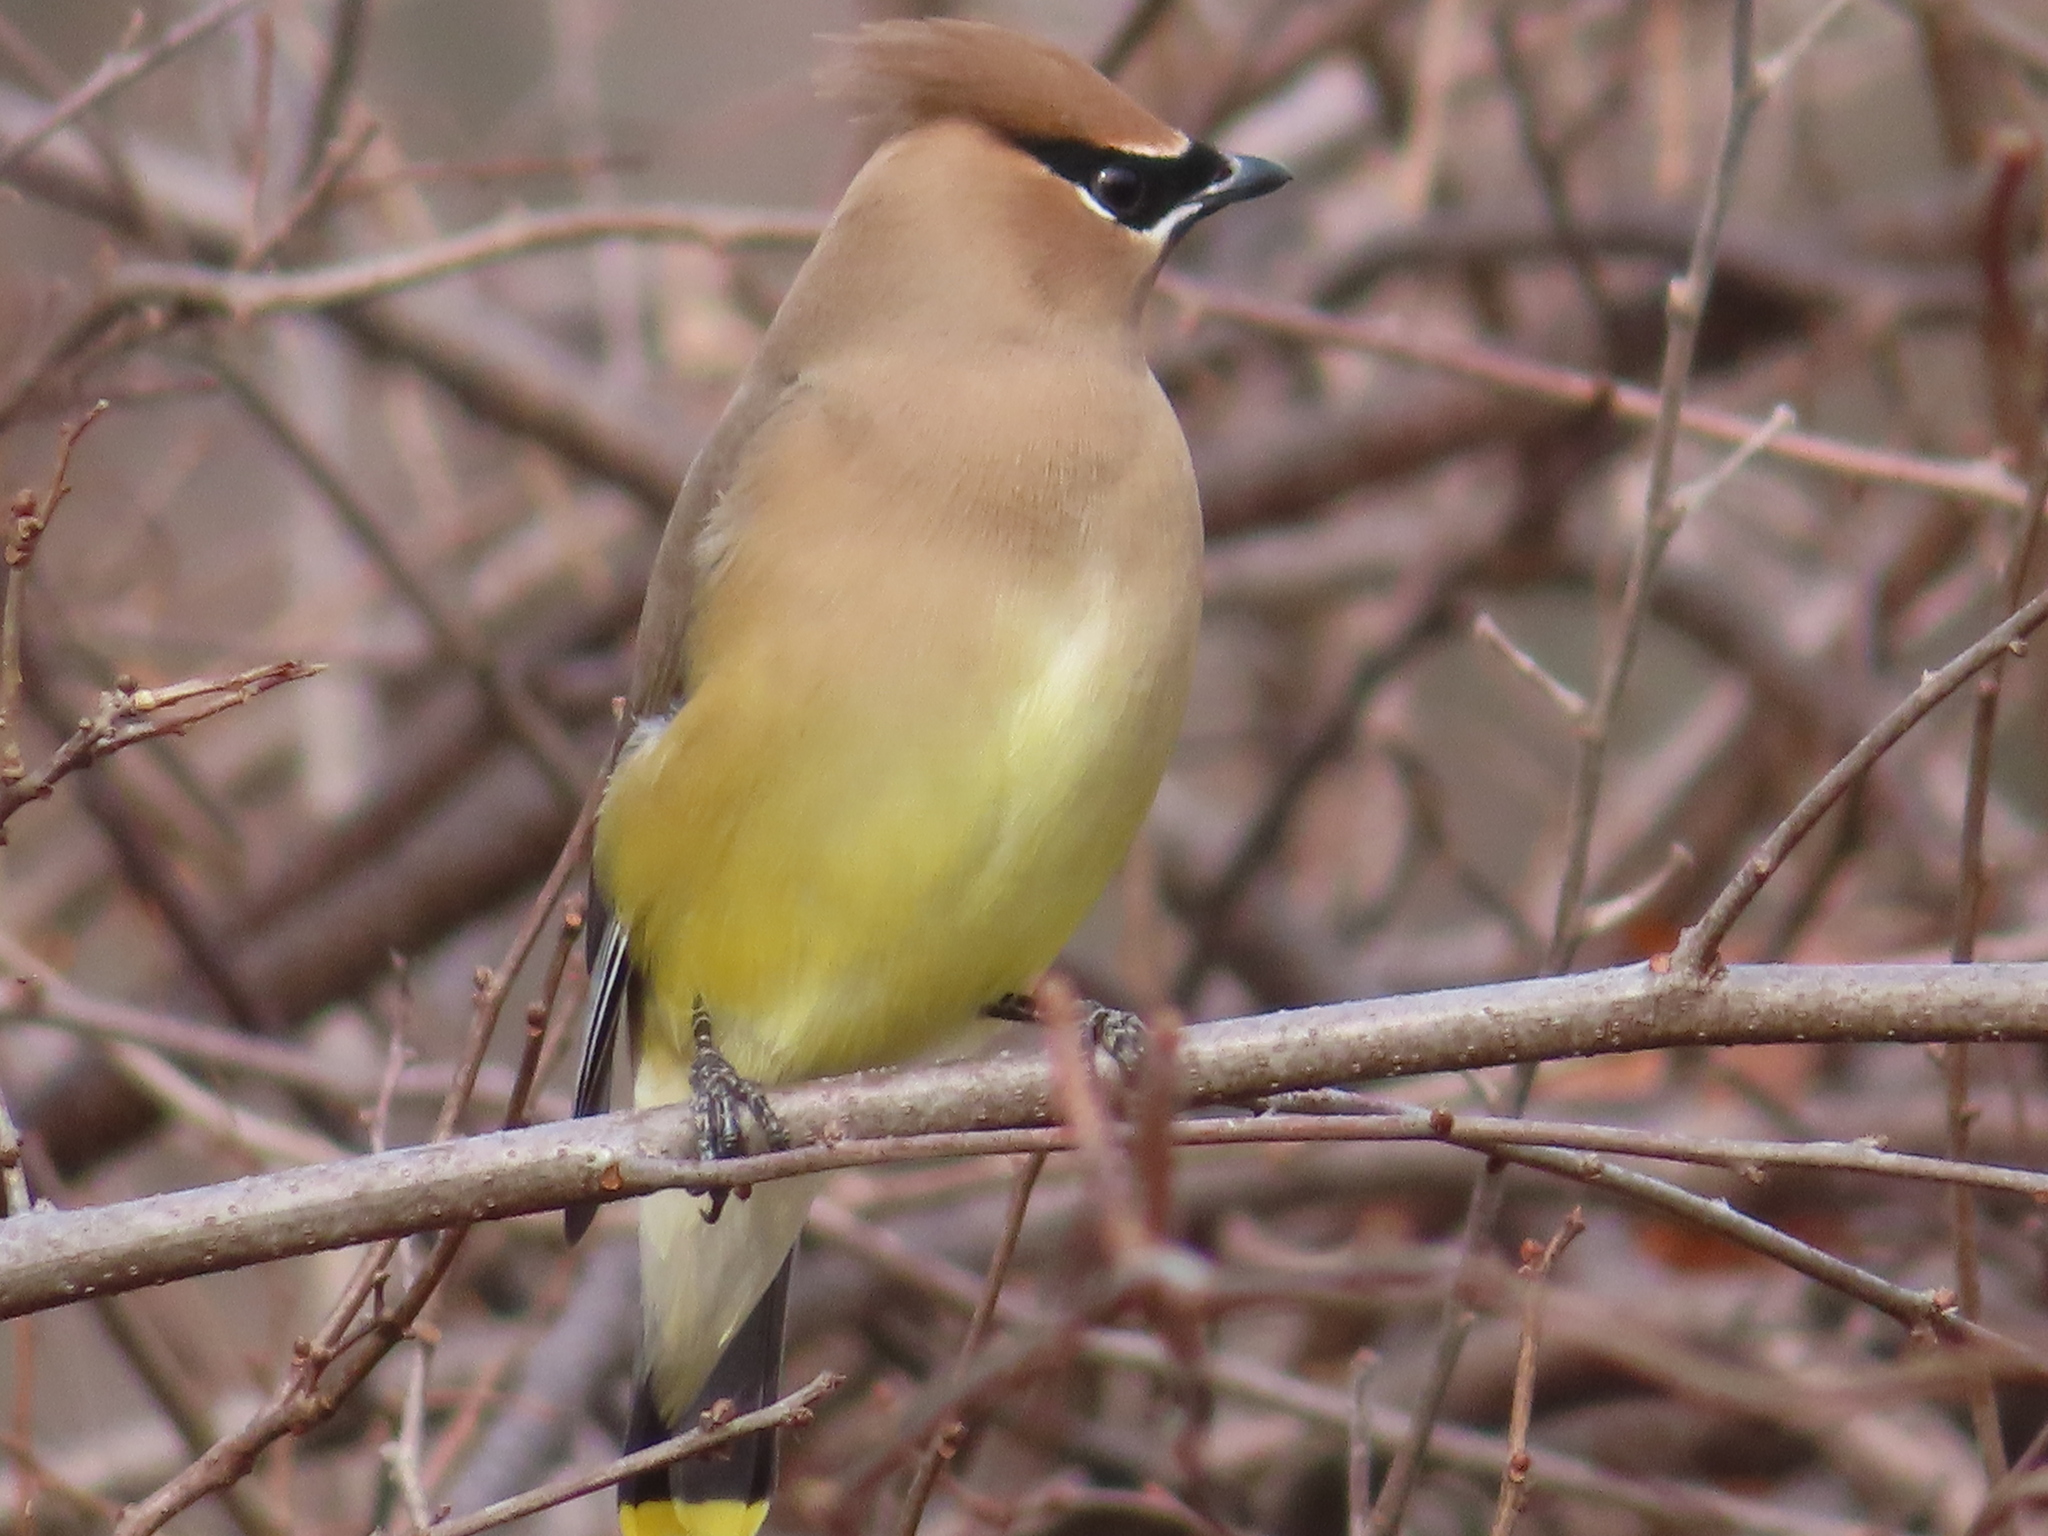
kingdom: Animalia
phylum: Chordata
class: Aves
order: Passeriformes
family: Bombycillidae
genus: Bombycilla
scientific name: Bombycilla cedrorum
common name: Cedar waxwing
